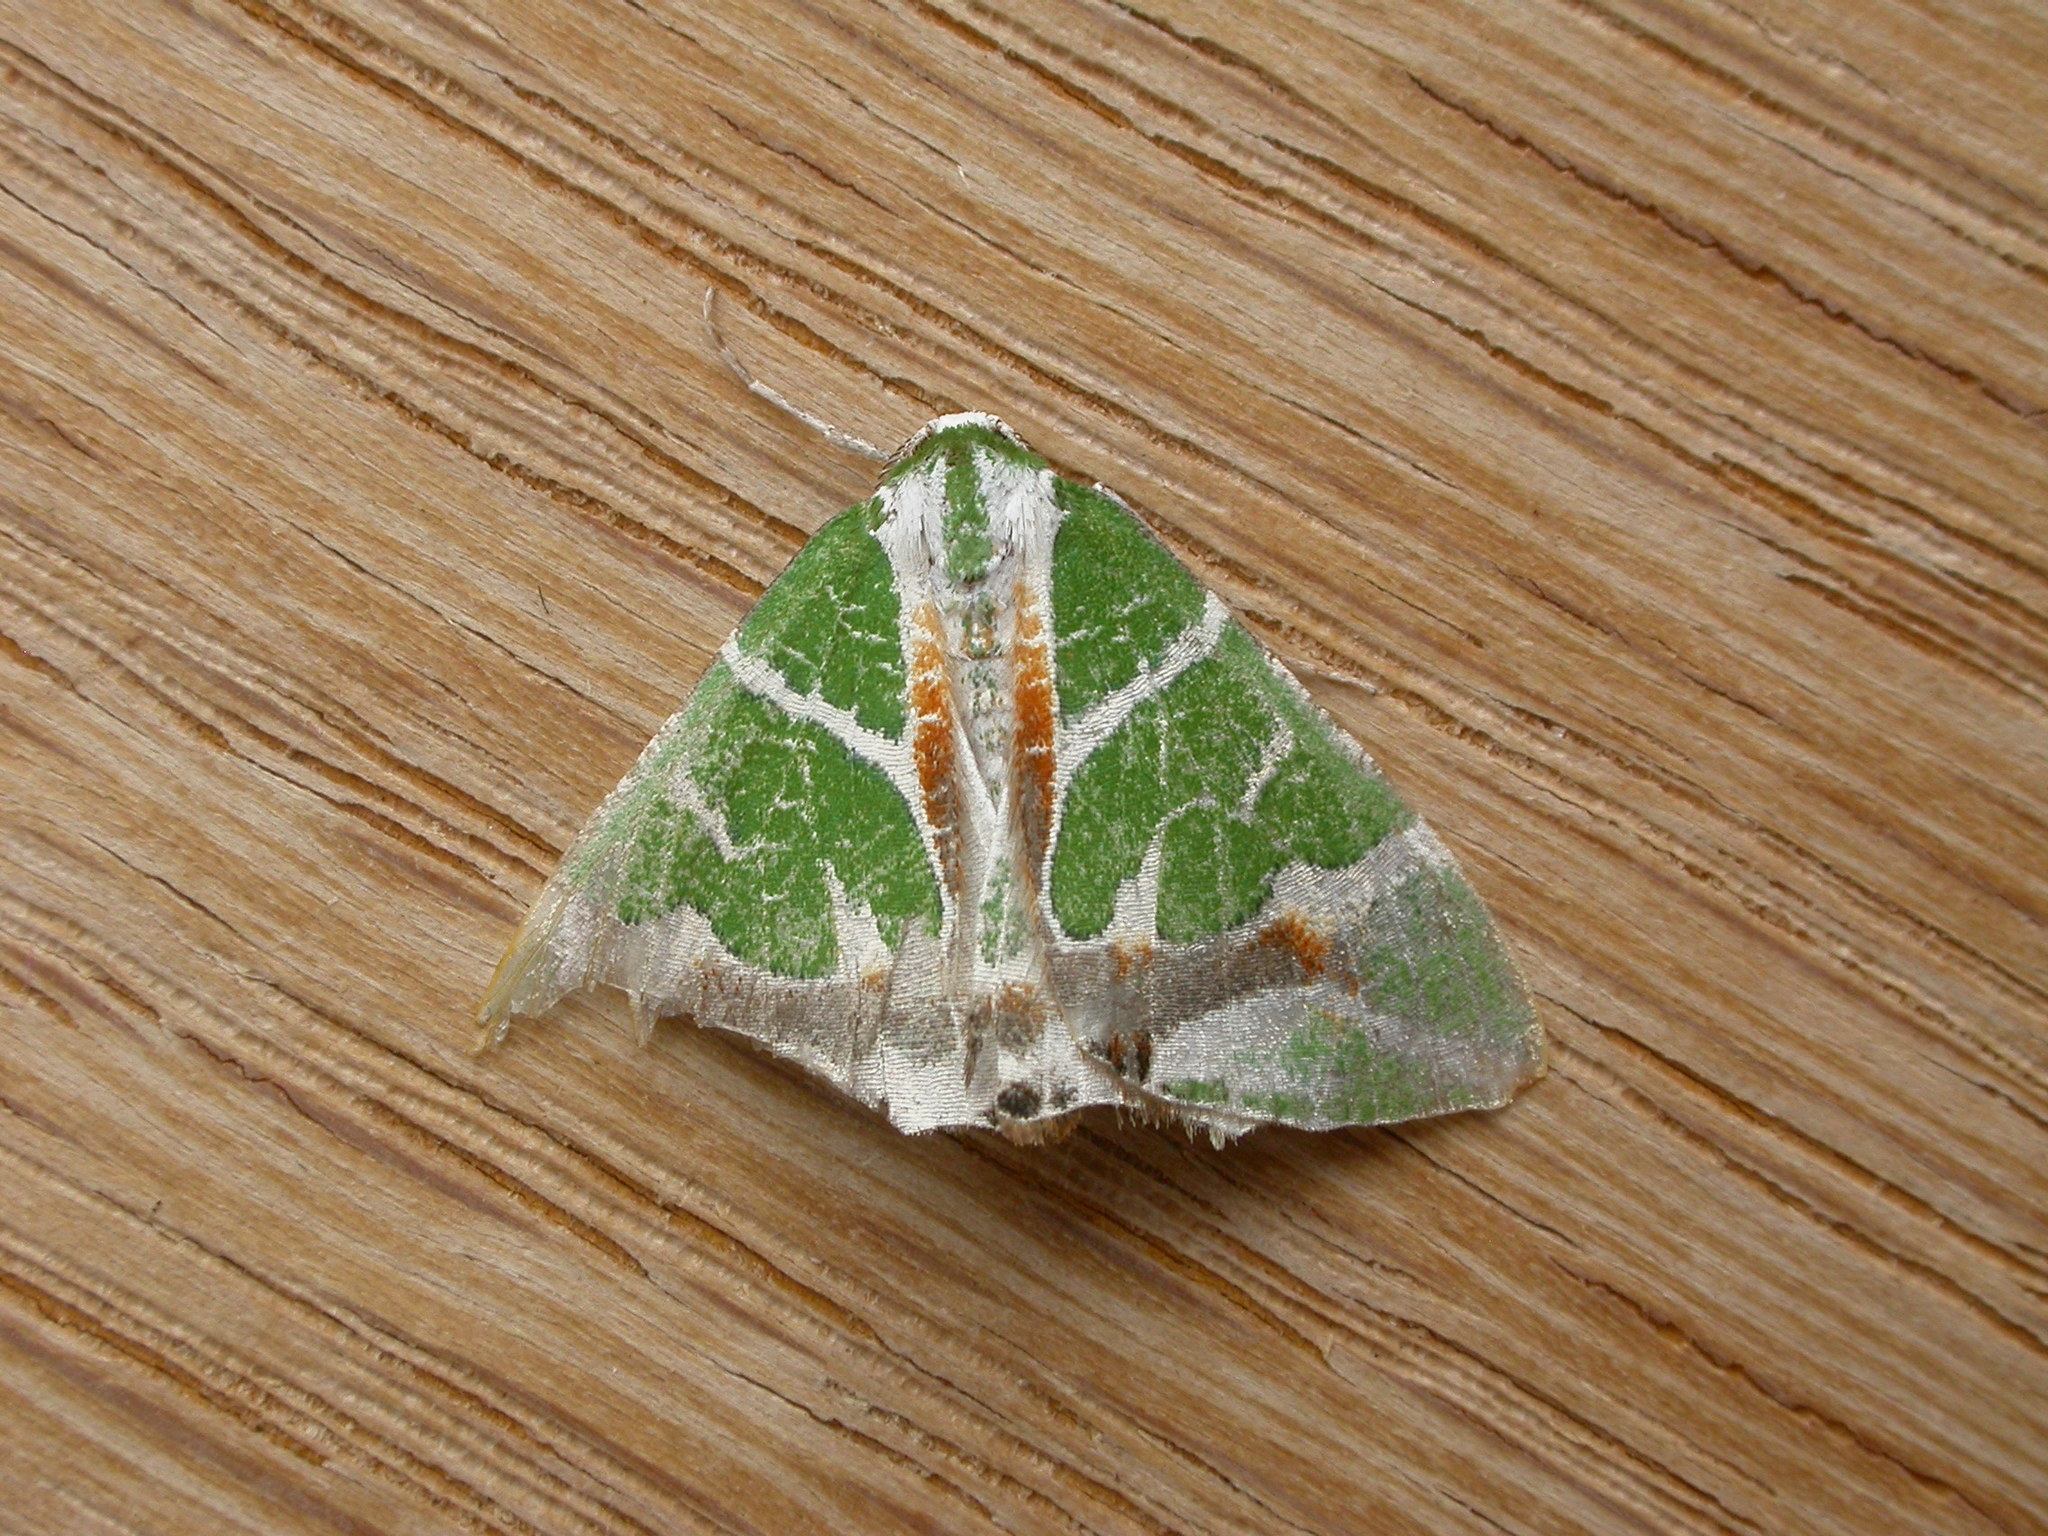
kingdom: Animalia
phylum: Arthropoda
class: Insecta
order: Lepidoptera
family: Geometridae
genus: Chlorodes
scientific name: Chlorodes boisduvalaria
